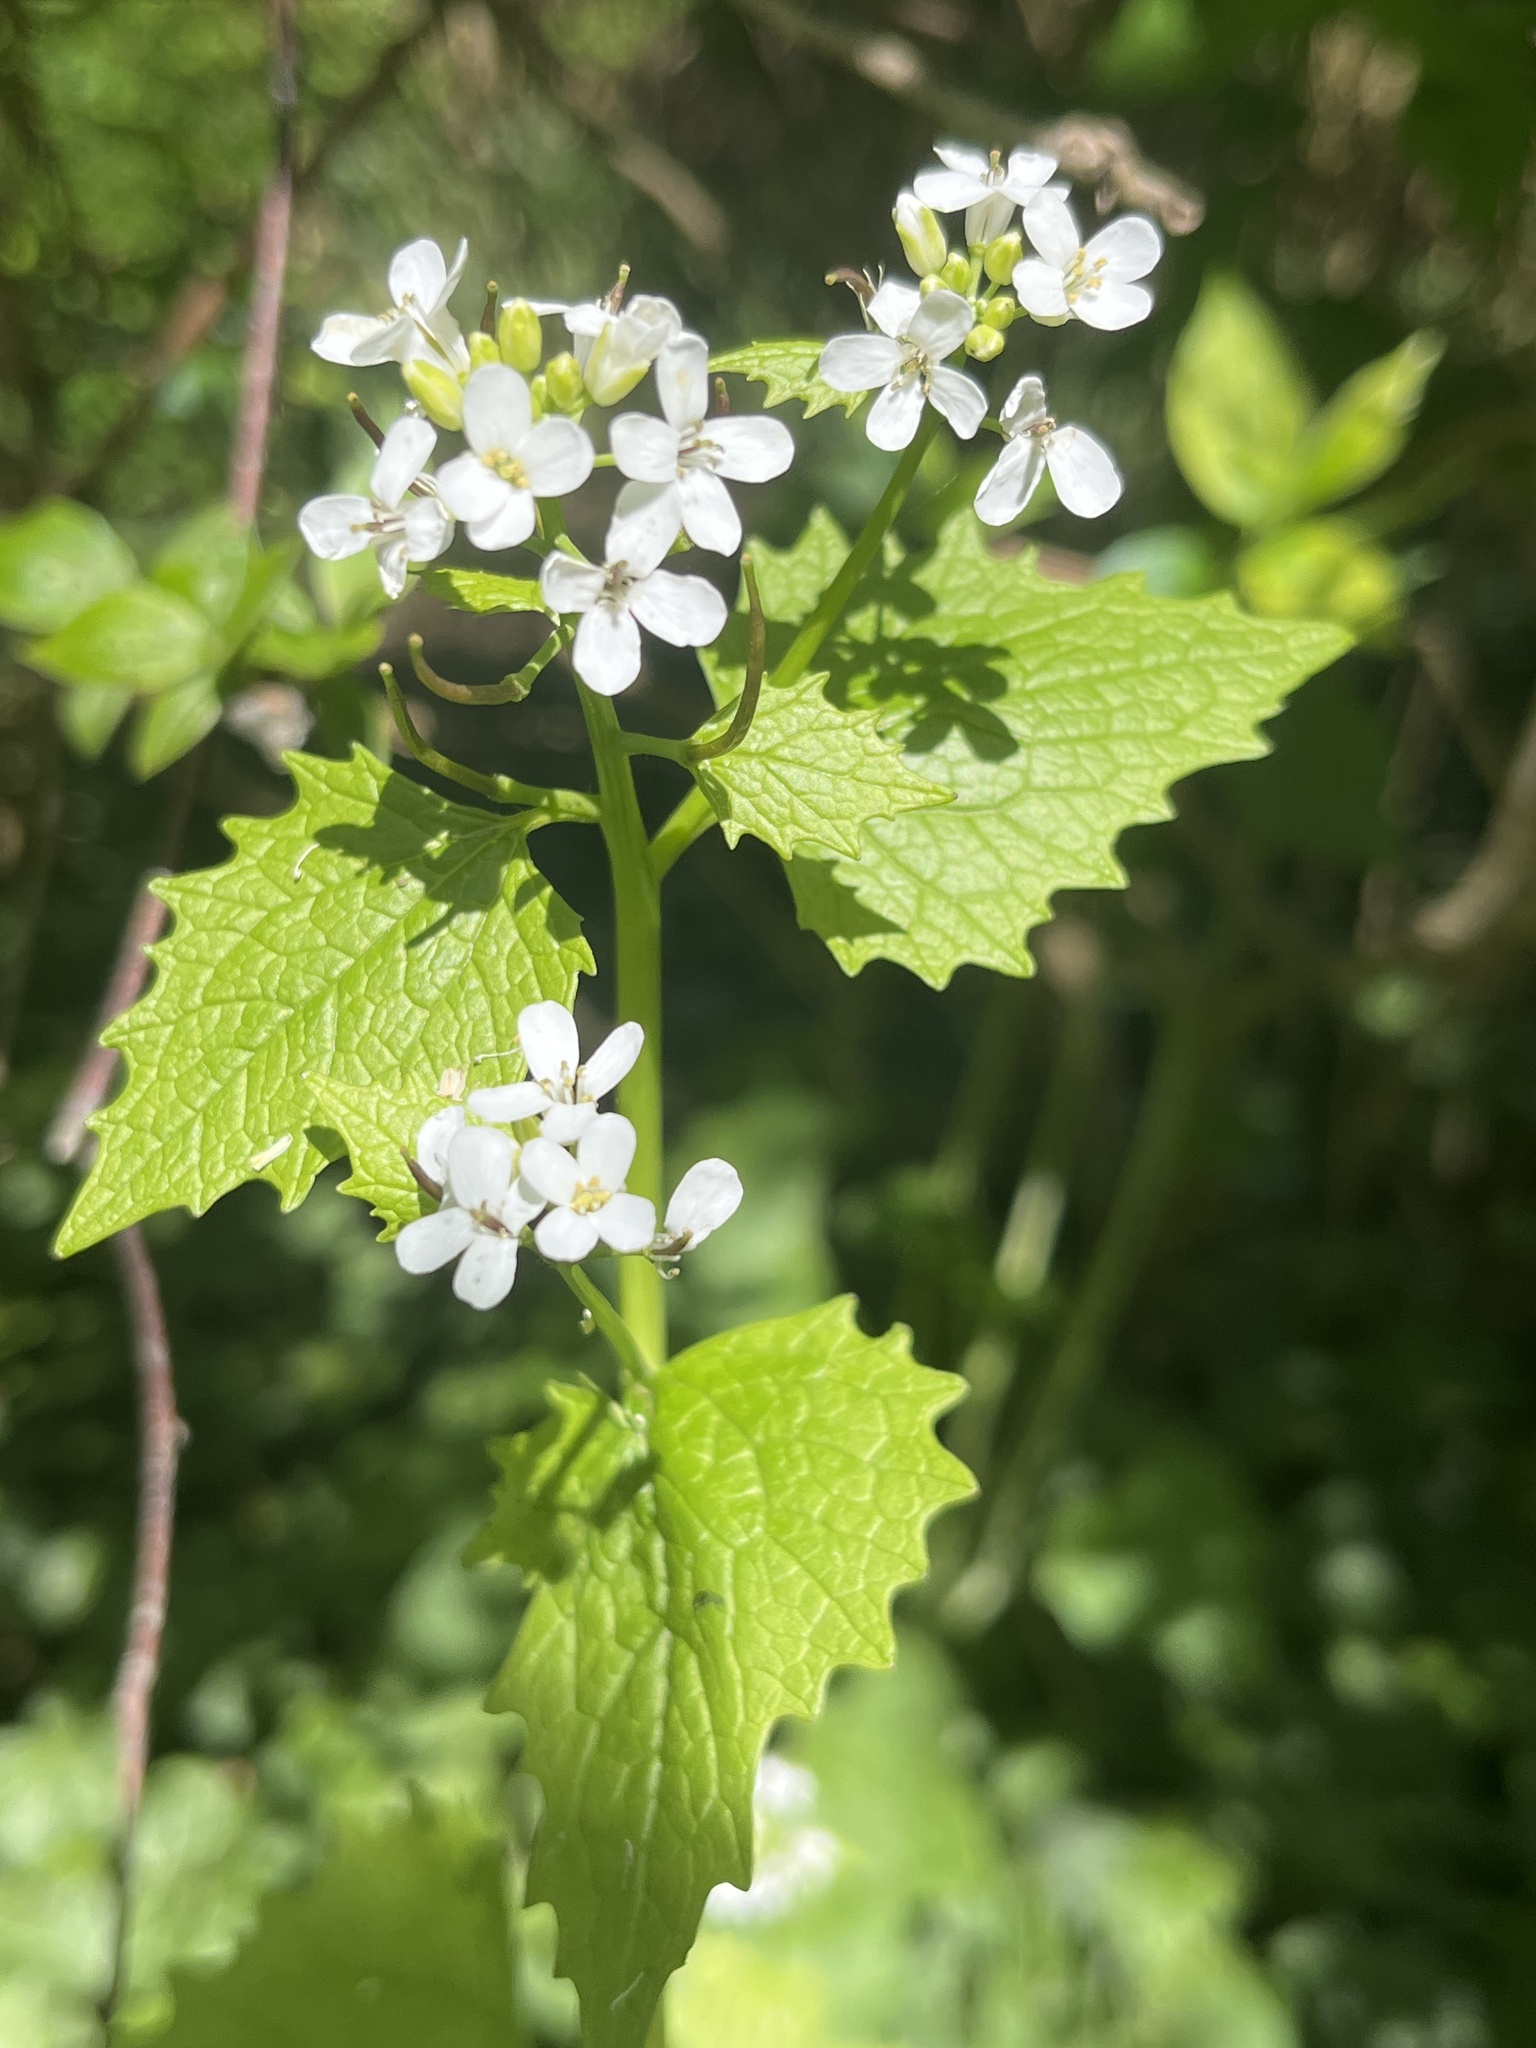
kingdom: Plantae
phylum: Tracheophyta
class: Magnoliopsida
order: Brassicales
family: Brassicaceae
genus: Alliaria
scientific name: Alliaria petiolata
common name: Garlic mustard
